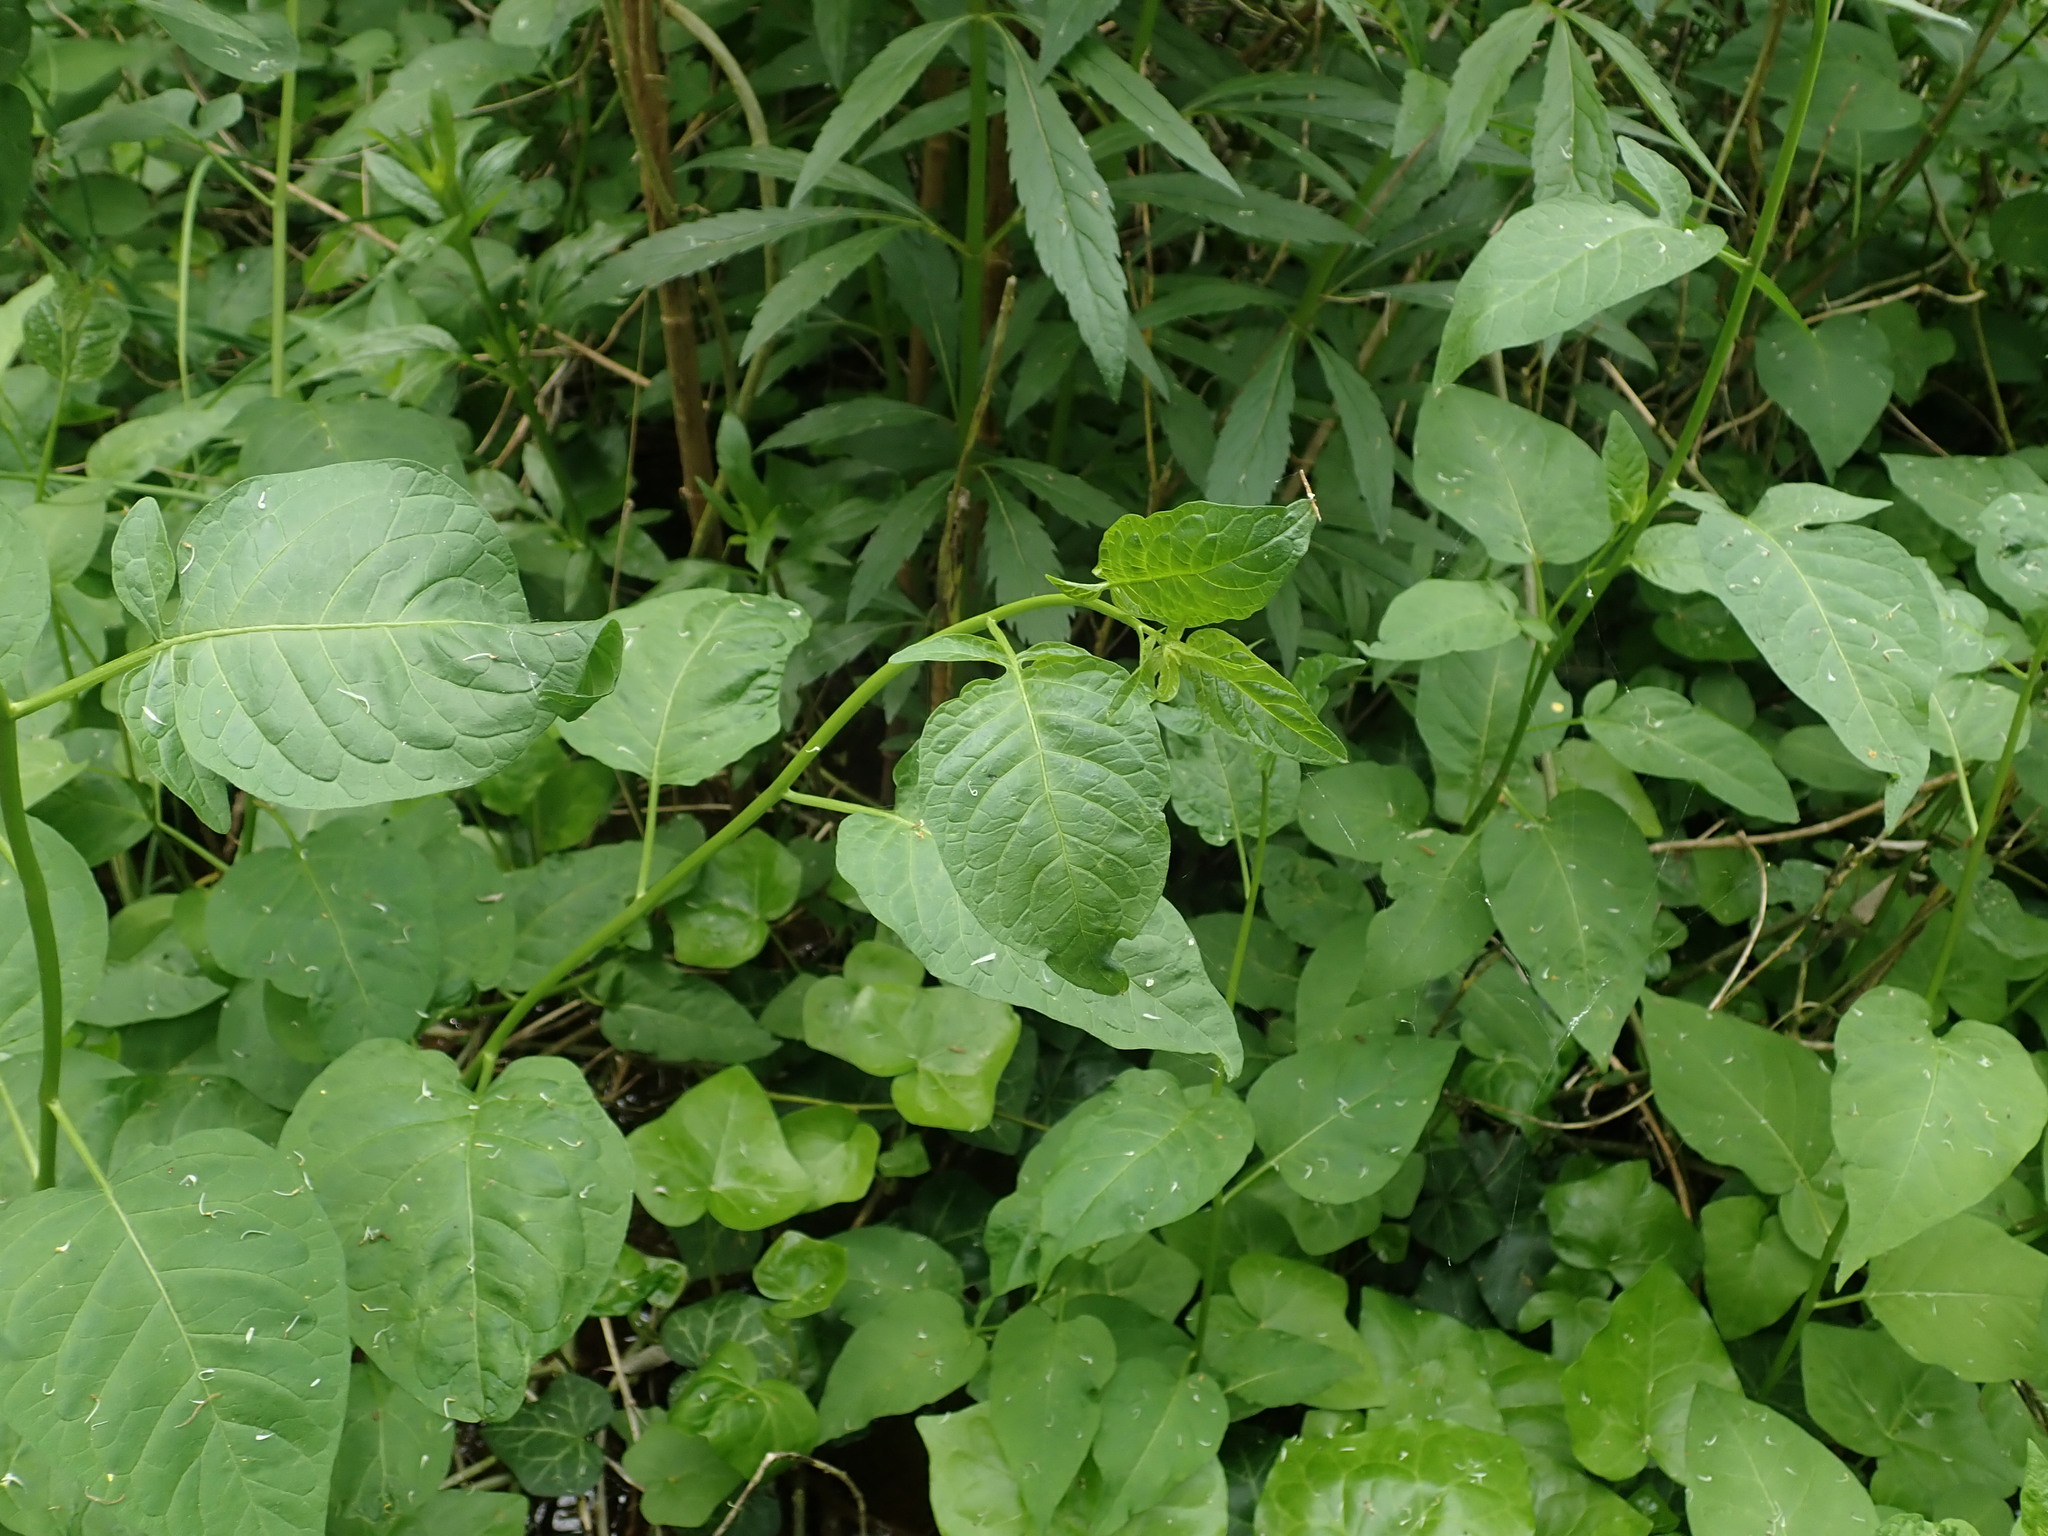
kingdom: Plantae
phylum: Tracheophyta
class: Magnoliopsida
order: Solanales
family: Solanaceae
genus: Solanum
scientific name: Solanum dulcamara
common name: Climbing nightshade
